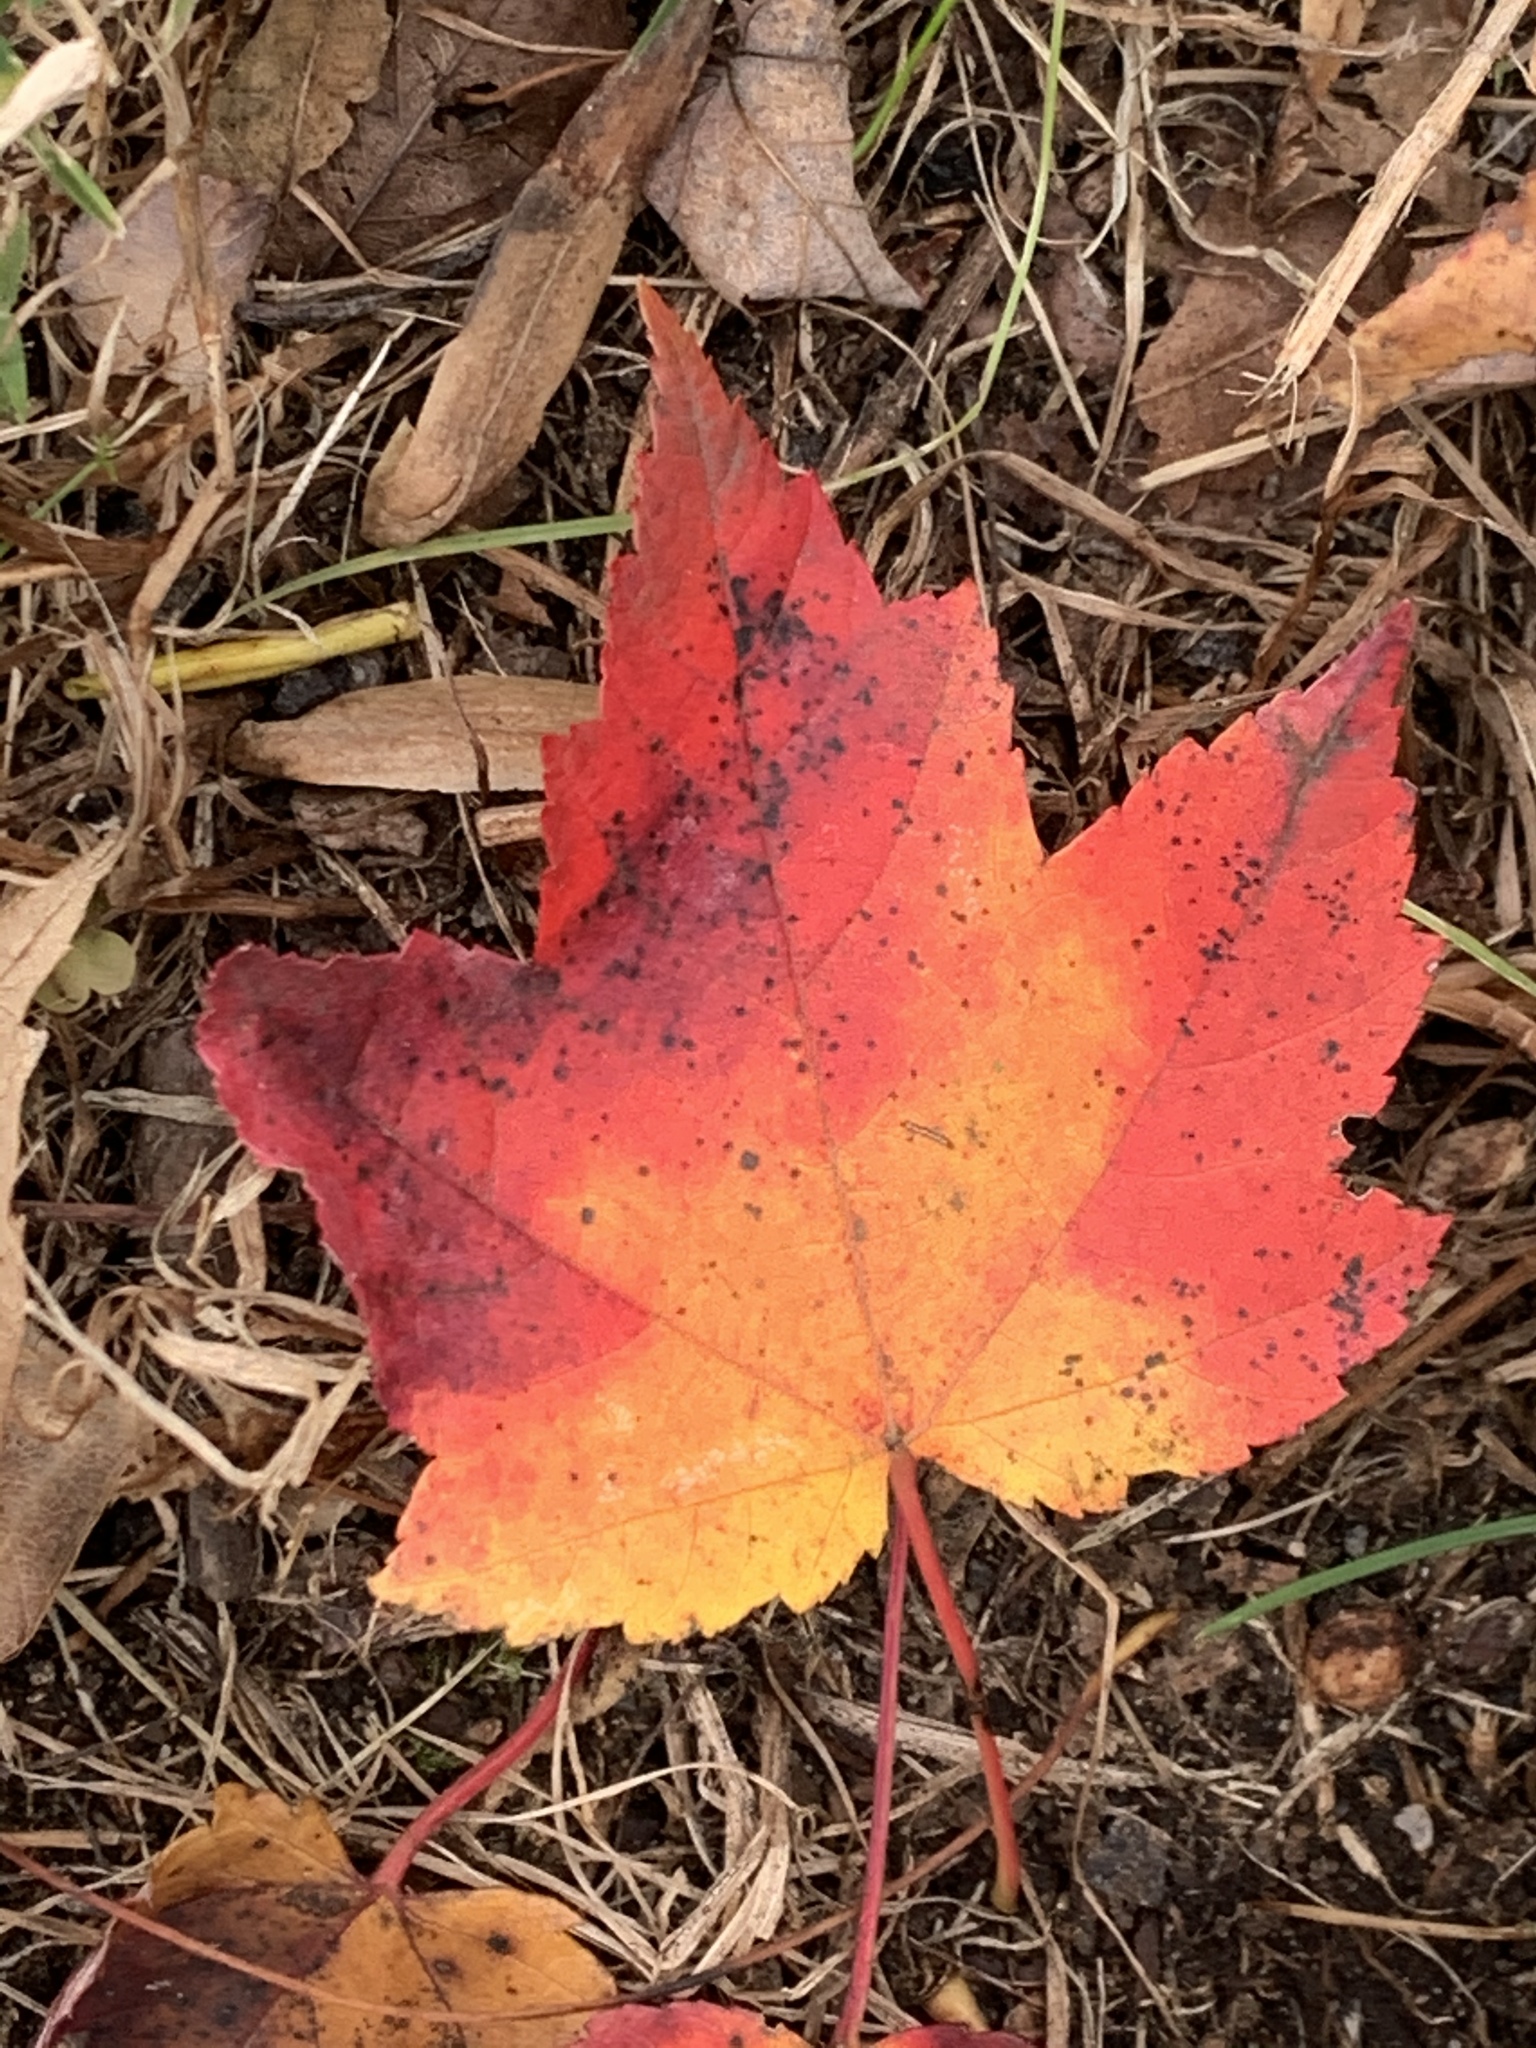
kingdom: Plantae
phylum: Tracheophyta
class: Magnoliopsida
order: Sapindales
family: Sapindaceae
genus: Acer
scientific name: Acer rubrum
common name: Red maple
